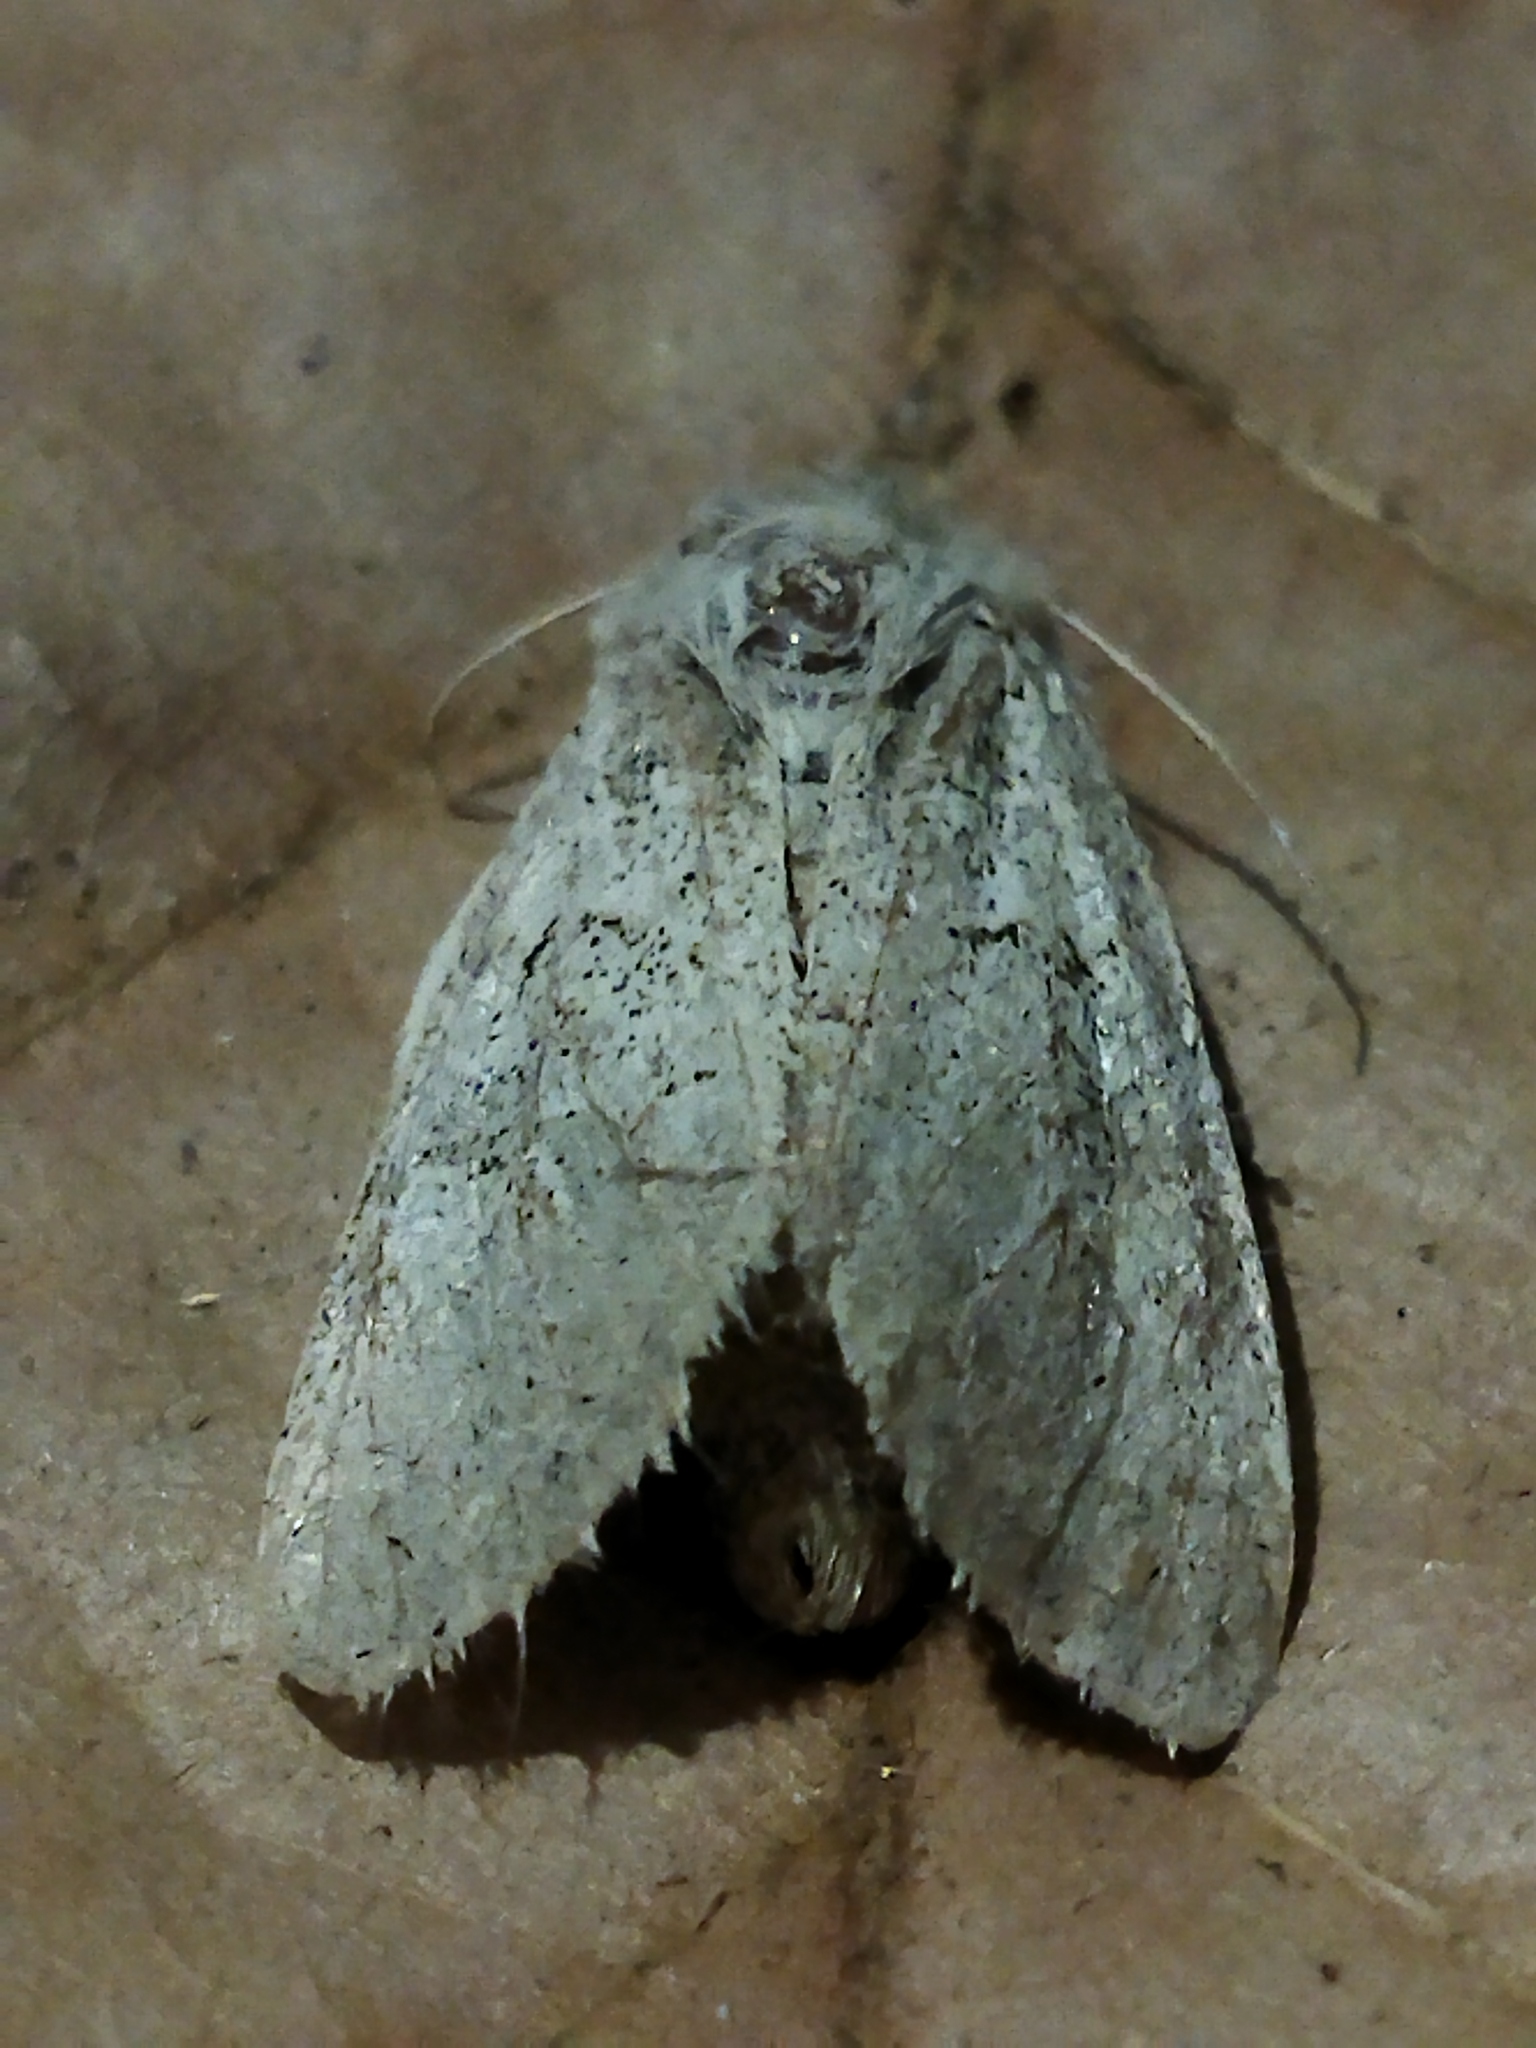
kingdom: Animalia
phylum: Arthropoda
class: Insecta
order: Lepidoptera
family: Noctuidae
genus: Episema
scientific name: Episema lederi
